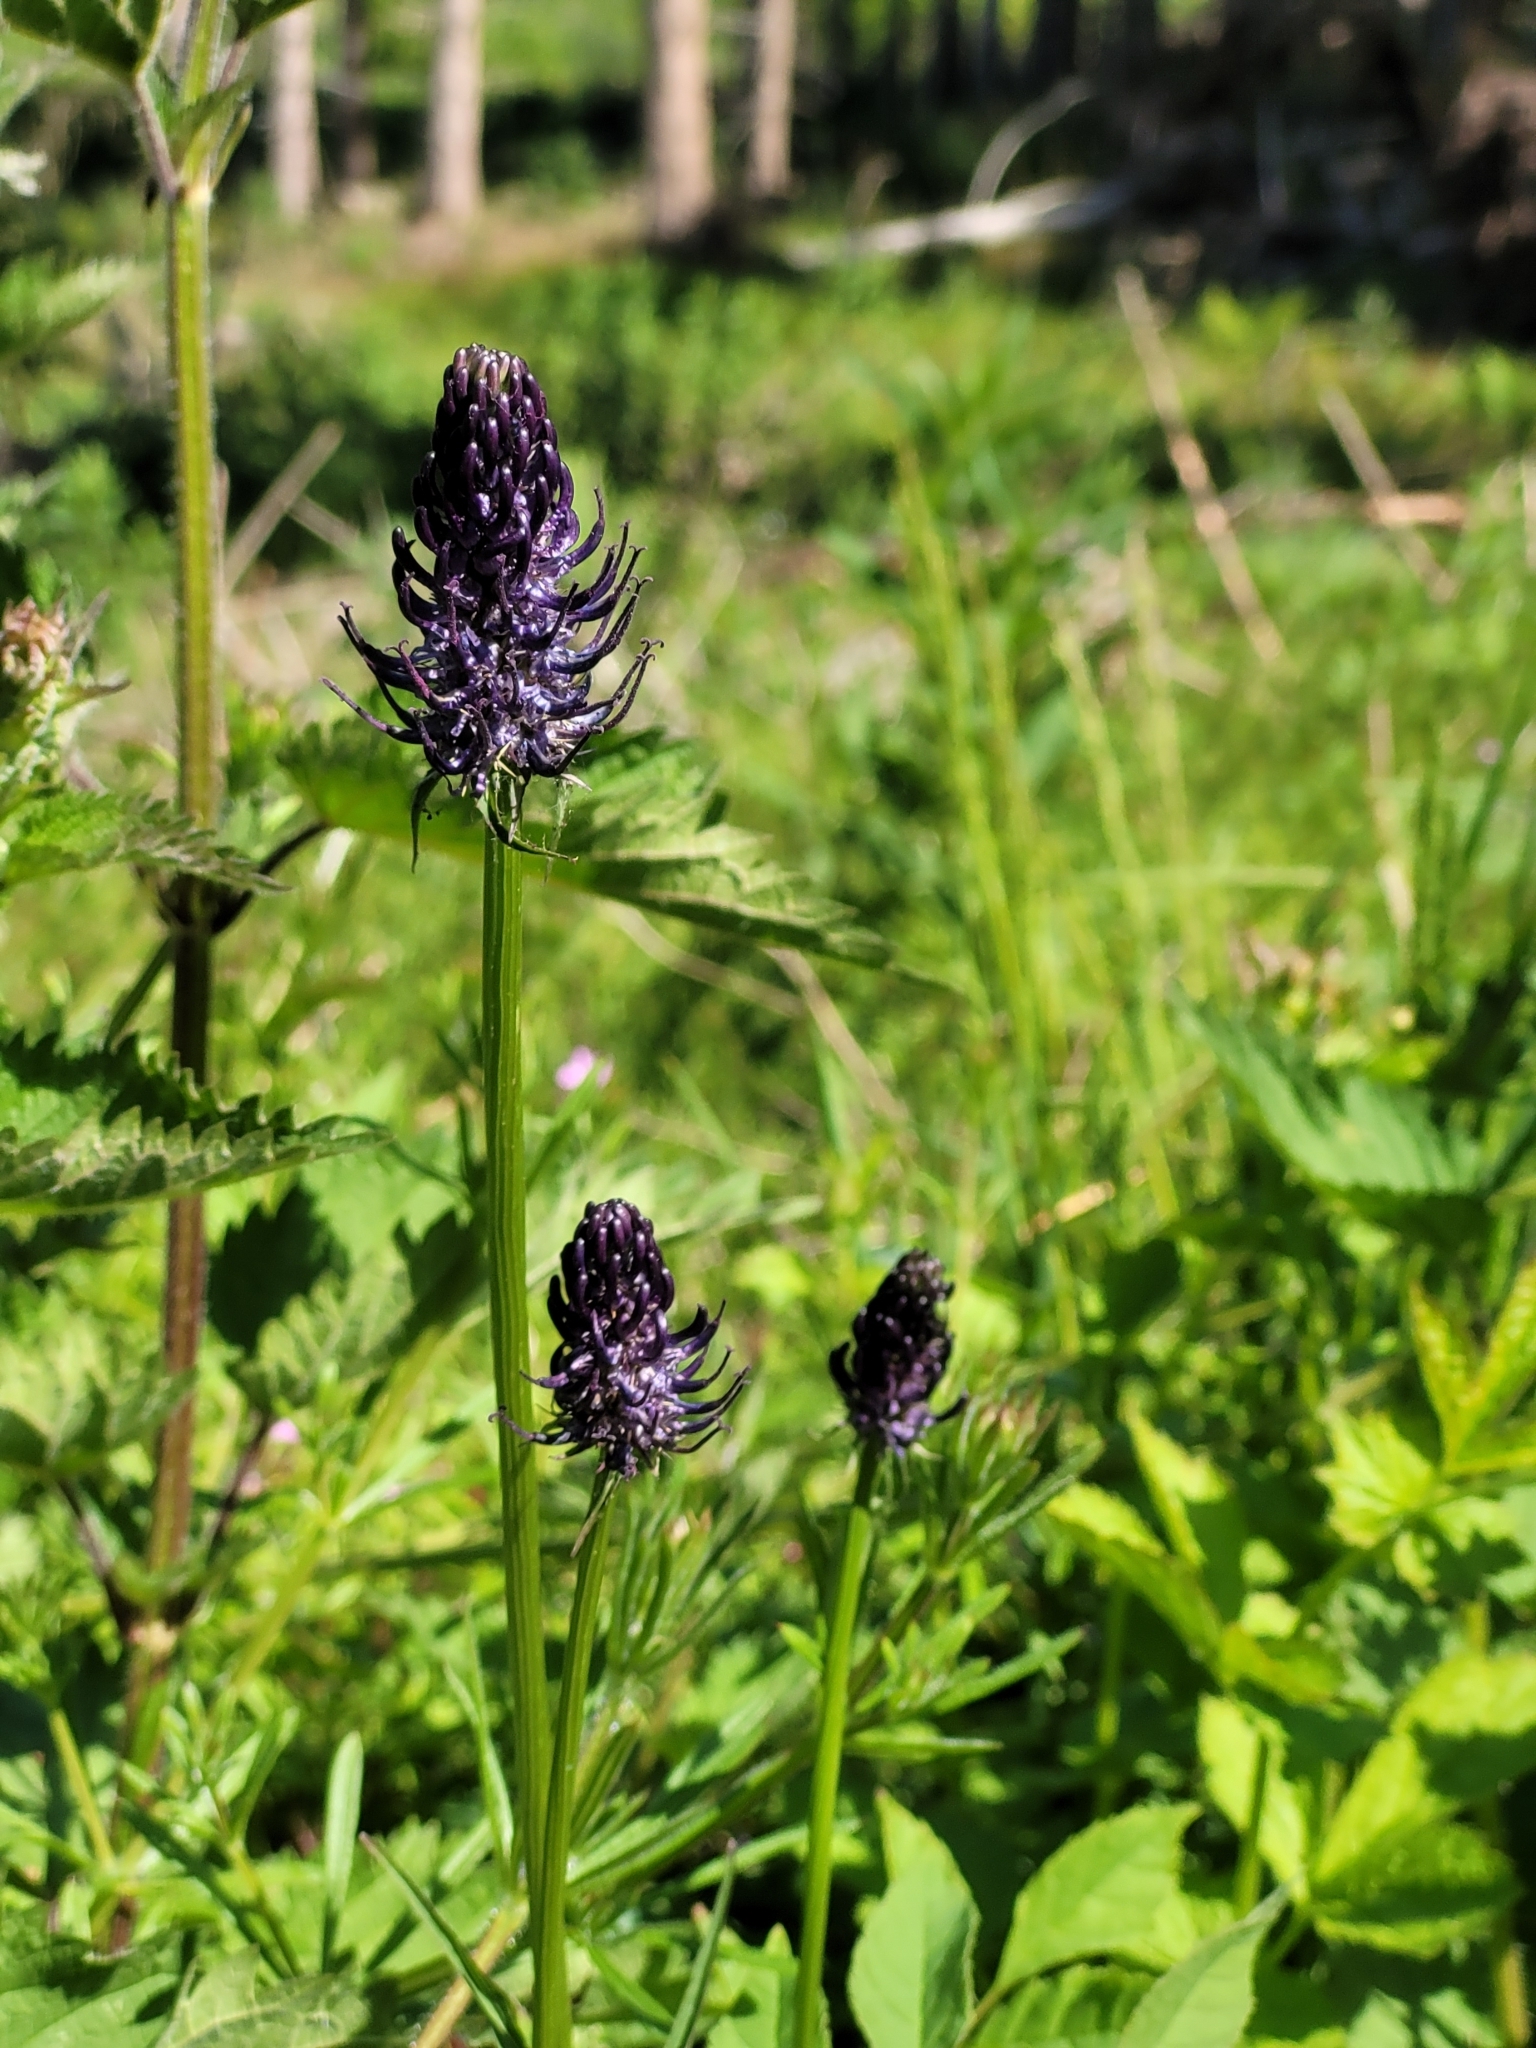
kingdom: Plantae
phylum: Tracheophyta
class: Magnoliopsida
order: Asterales
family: Campanulaceae
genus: Phyteuma
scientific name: Phyteuma nigrum
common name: Black rampion
